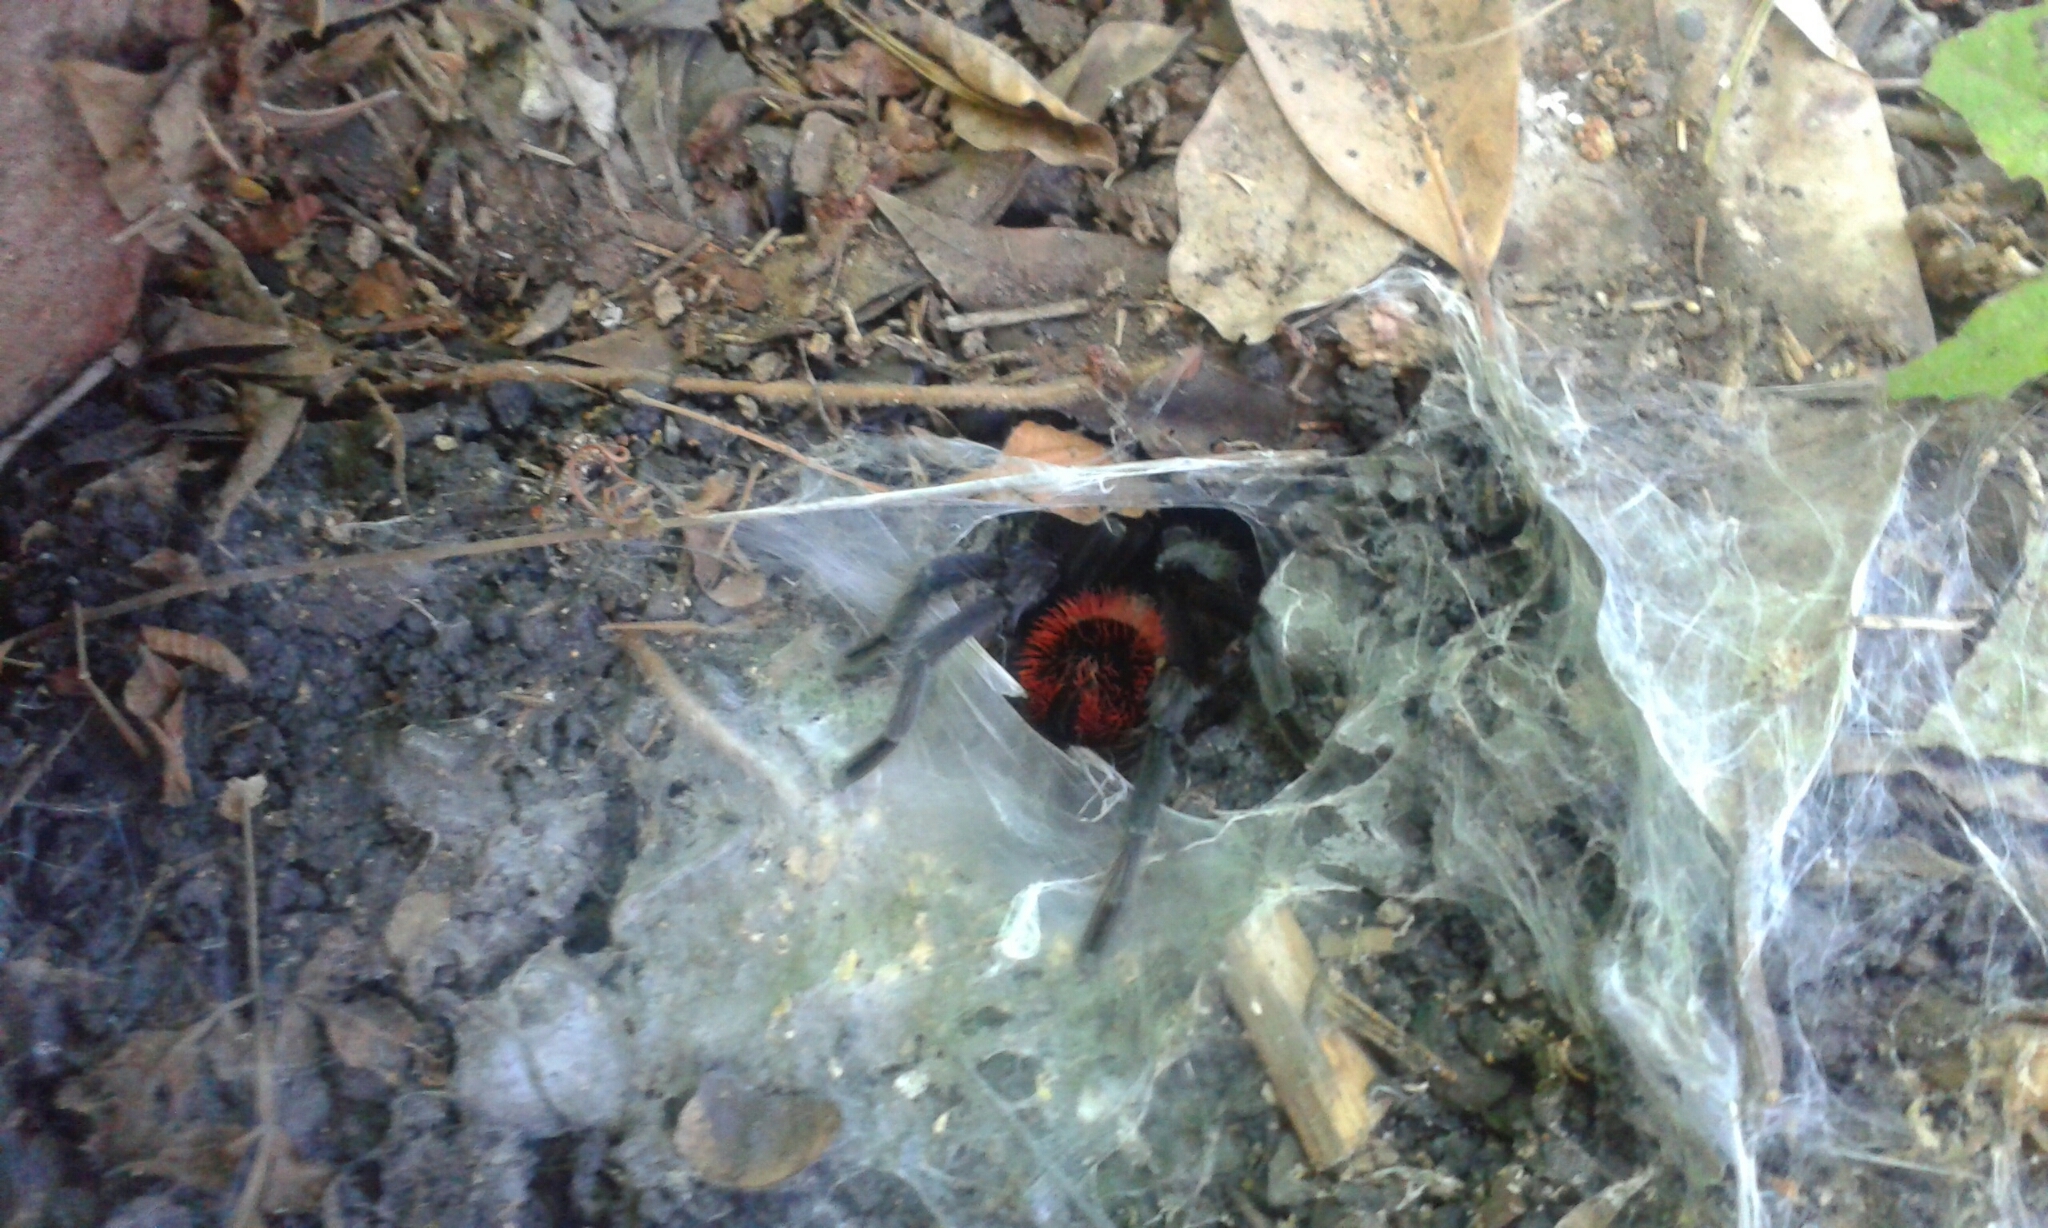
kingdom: Animalia
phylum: Arthropoda
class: Arachnida
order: Araneae
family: Theraphosidae
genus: Tliltocatl
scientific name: Tliltocatl kahlenbergi
